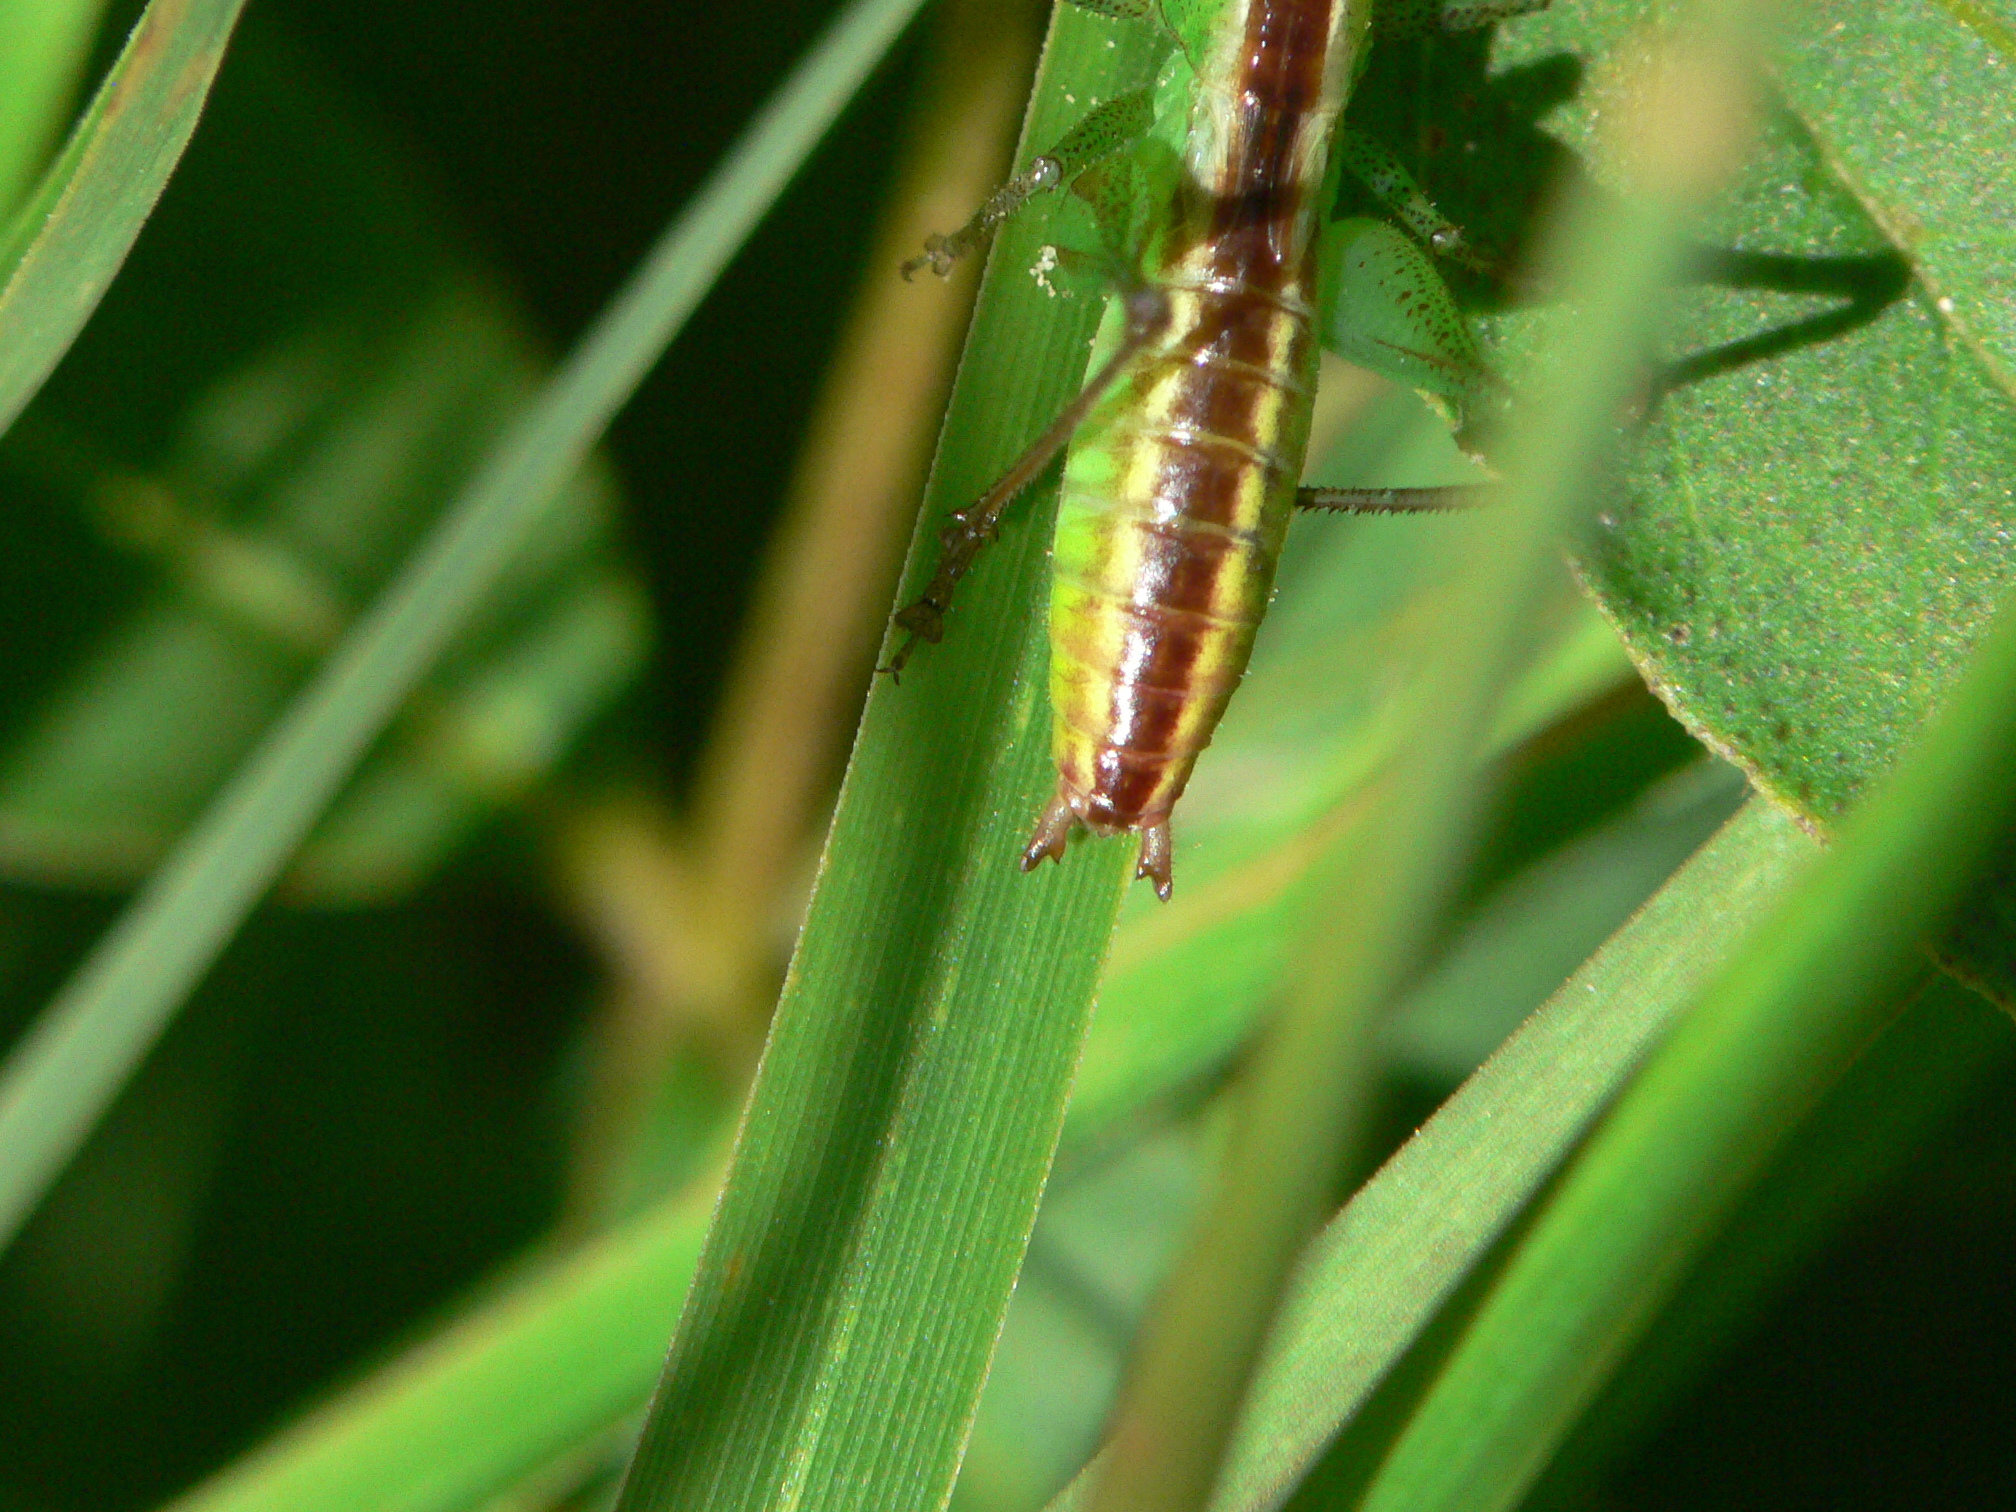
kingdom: Animalia
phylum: Arthropoda
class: Insecta
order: Orthoptera
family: Tettigoniidae
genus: Conocephalus
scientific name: Conocephalus brevipennis
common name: Short-winged meadow katydid
